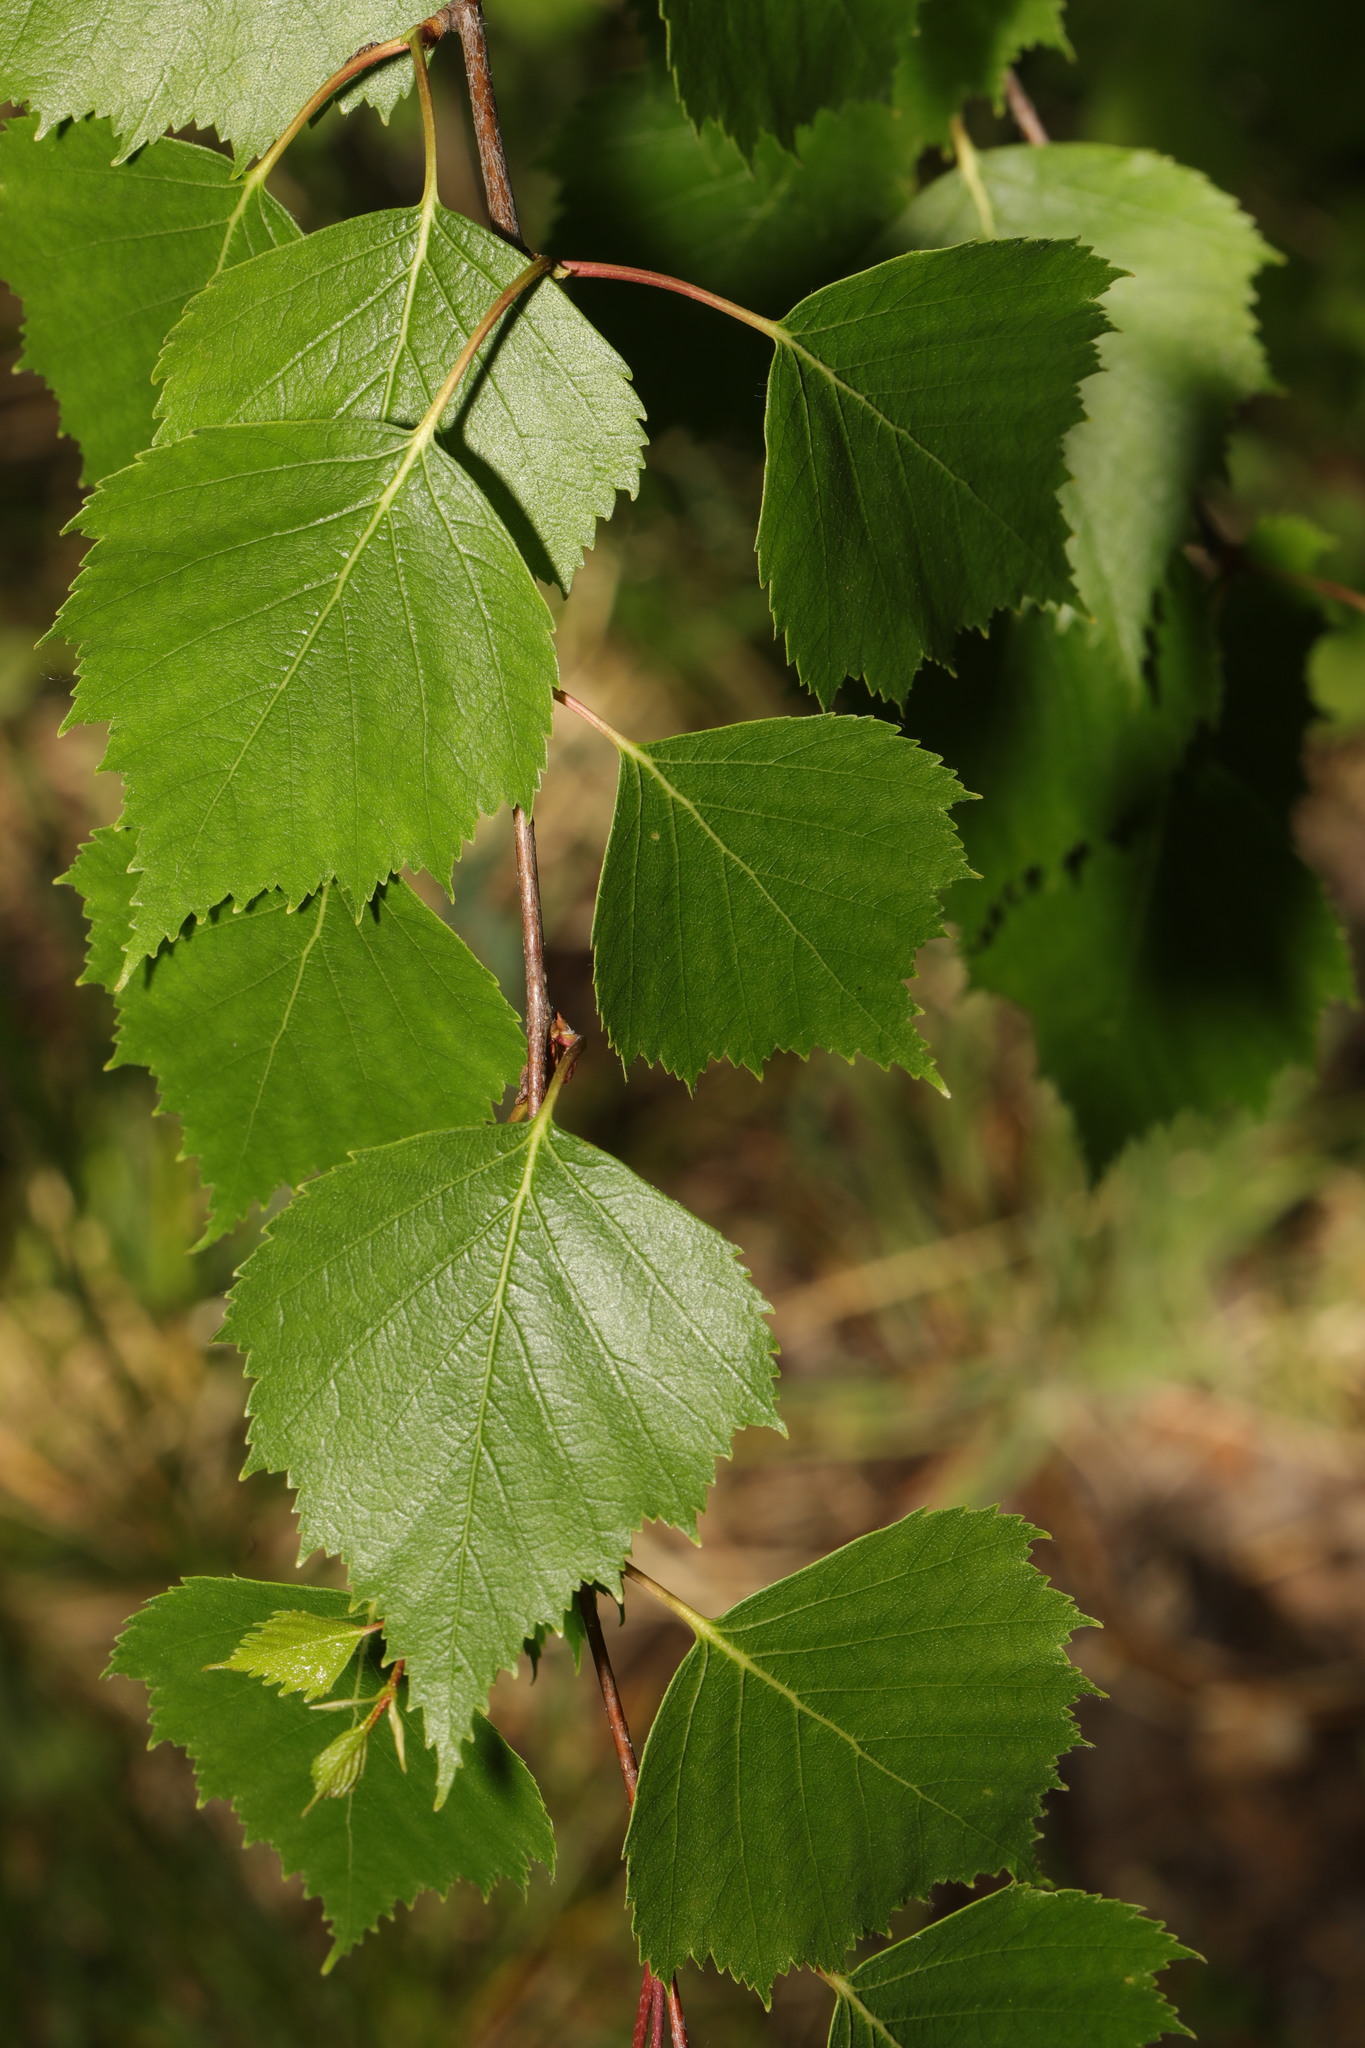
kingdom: Plantae
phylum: Tracheophyta
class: Magnoliopsida
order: Fagales
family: Betulaceae
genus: Betula
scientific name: Betula pendula
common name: Silver birch
